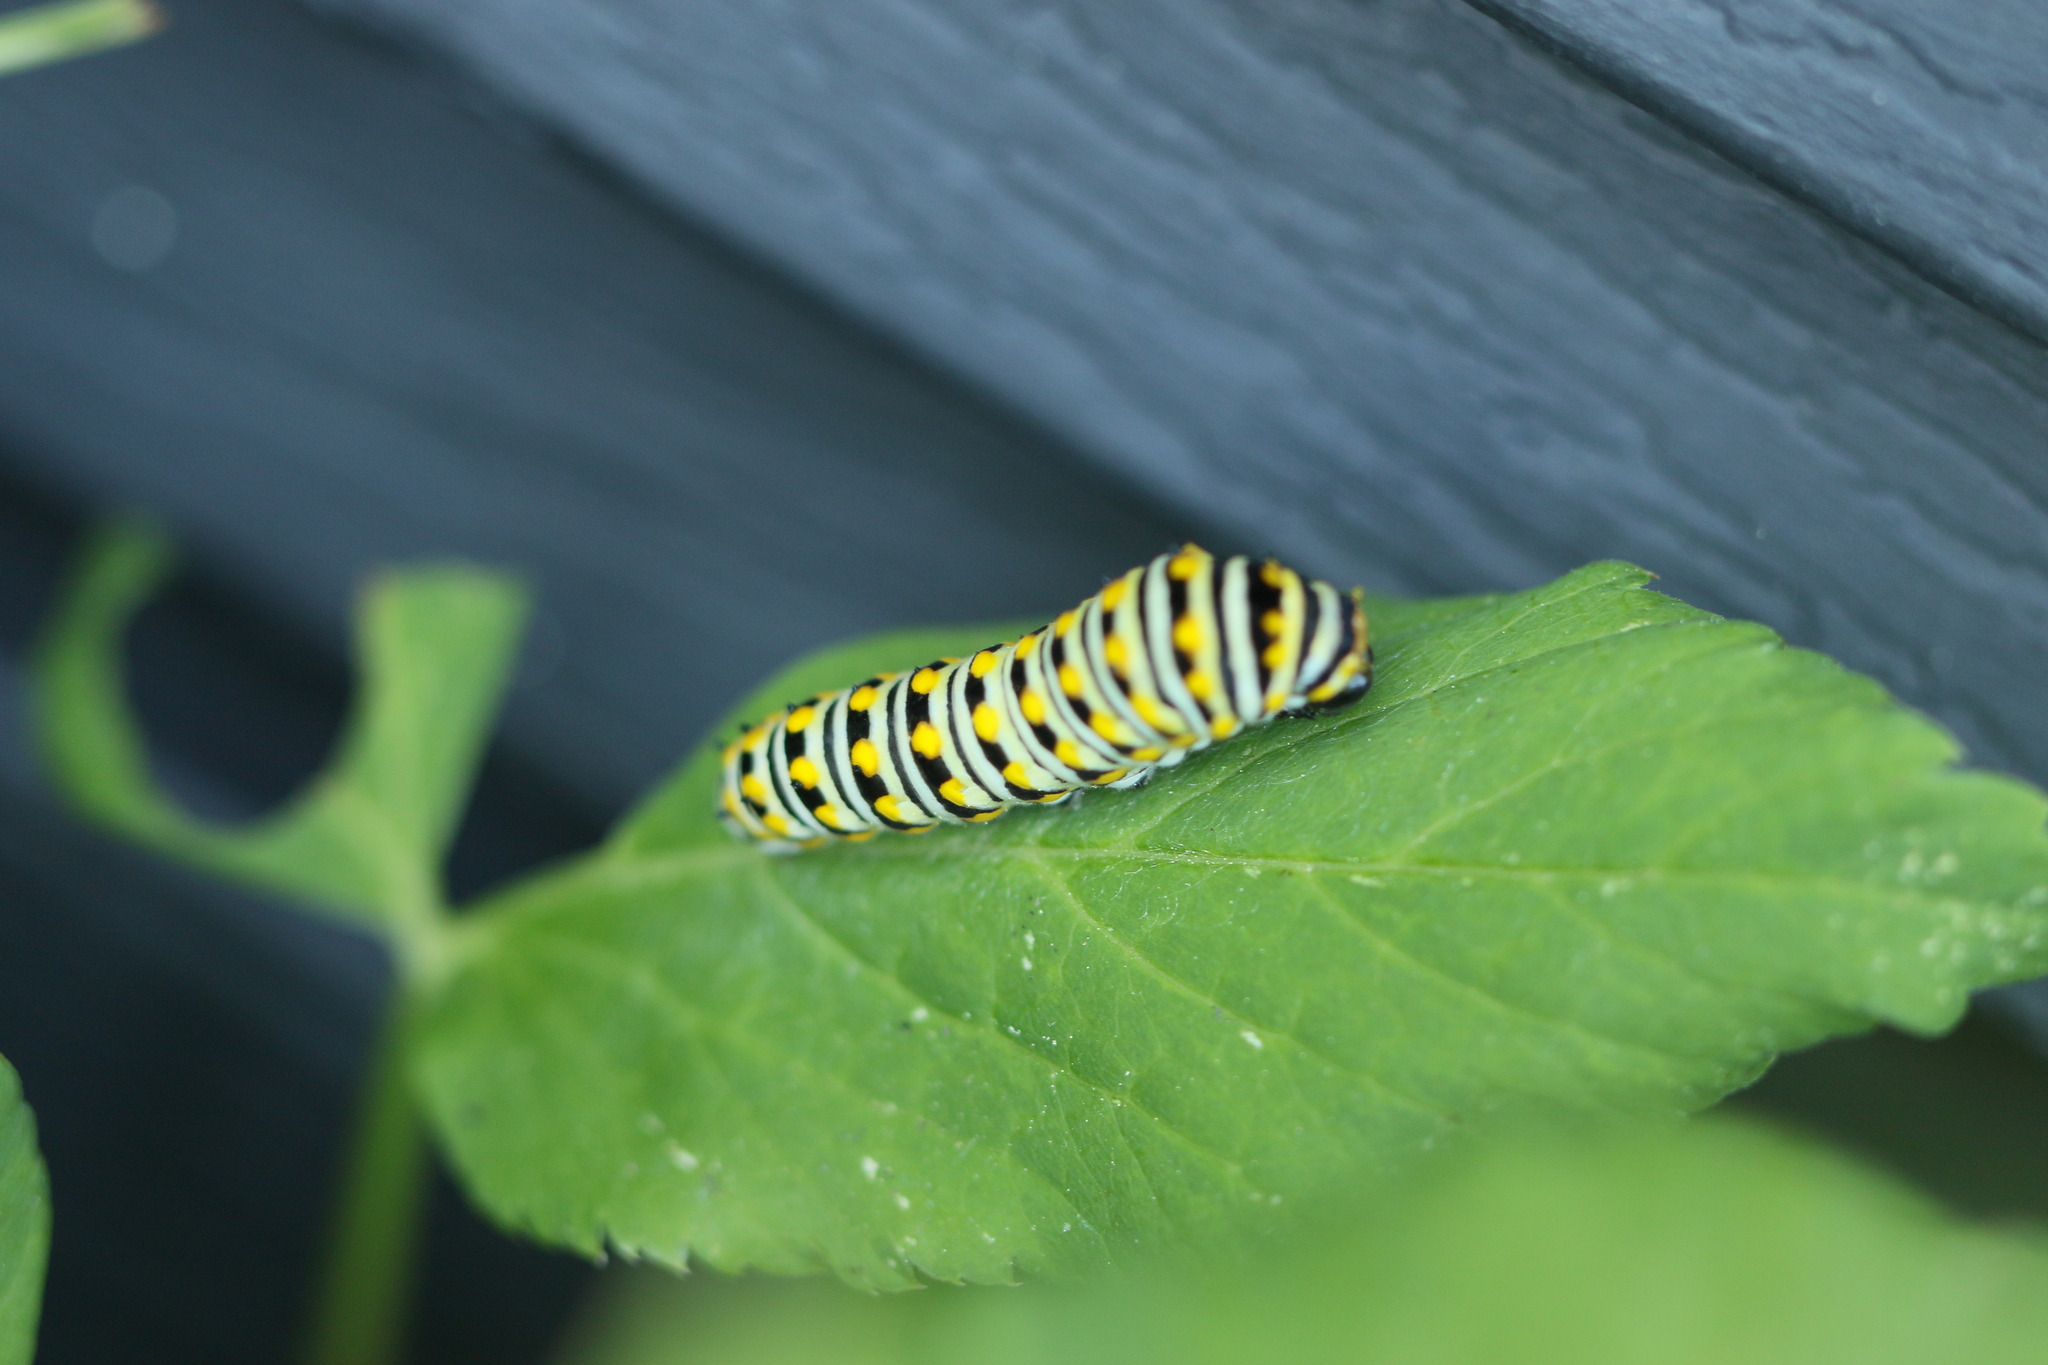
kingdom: Animalia
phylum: Arthropoda
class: Insecta
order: Lepidoptera
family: Papilionidae
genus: Papilio
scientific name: Papilio polyxenes
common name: Black swallowtail
